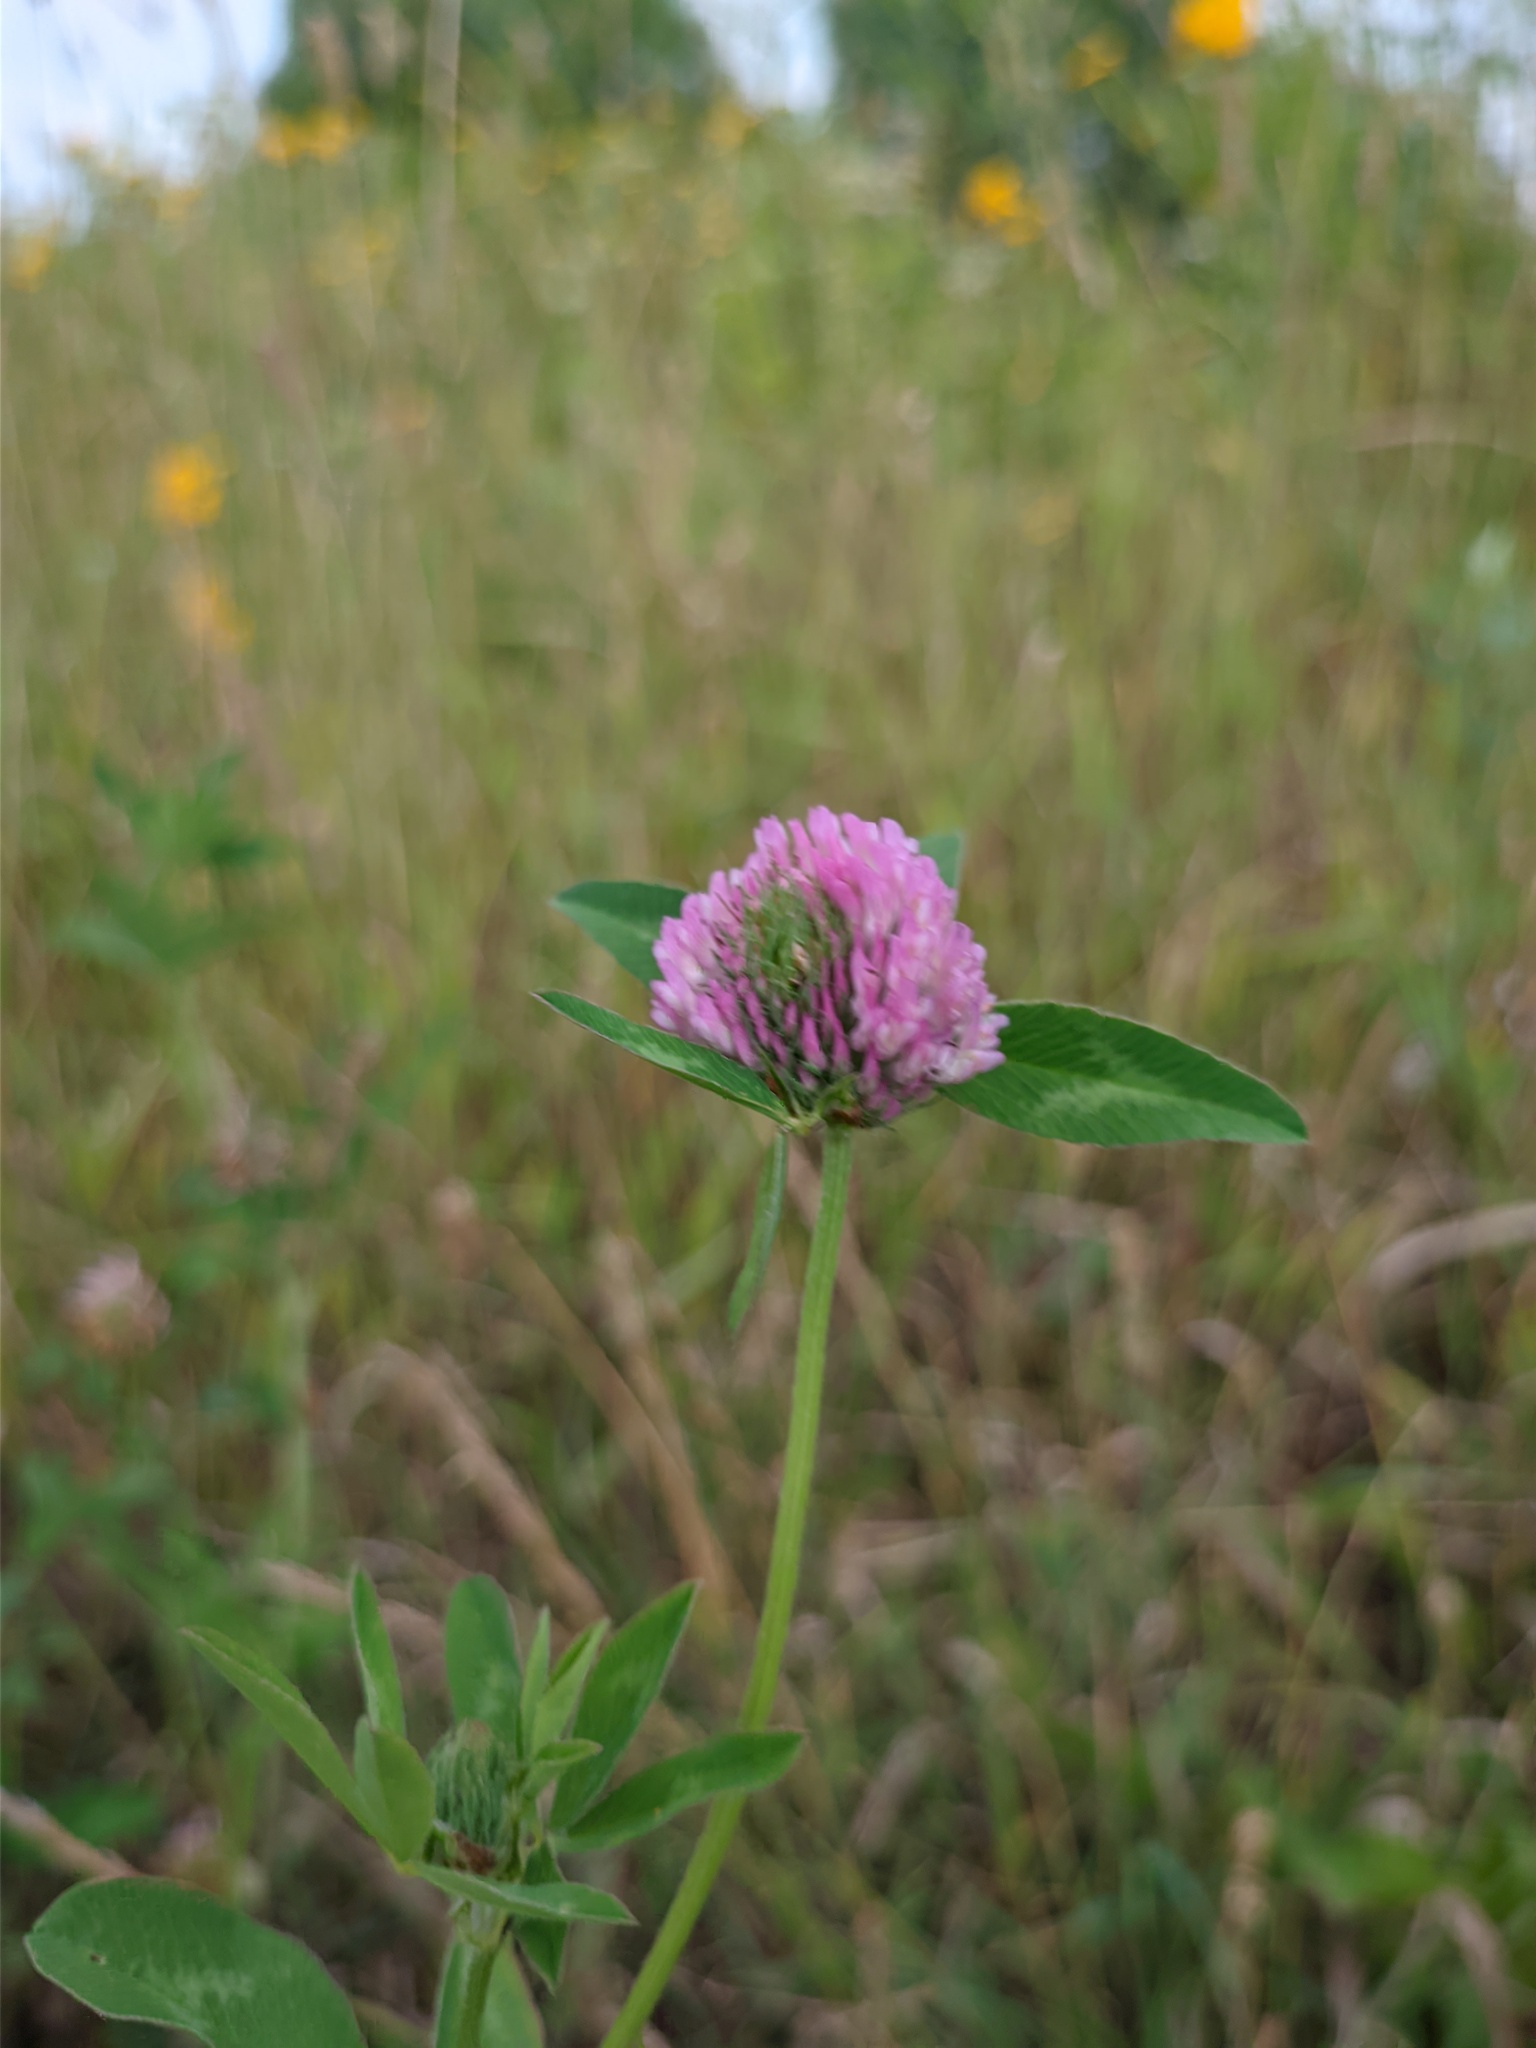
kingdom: Plantae
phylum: Tracheophyta
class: Magnoliopsida
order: Fabales
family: Fabaceae
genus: Trifolium
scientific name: Trifolium pratense
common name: Red clover
